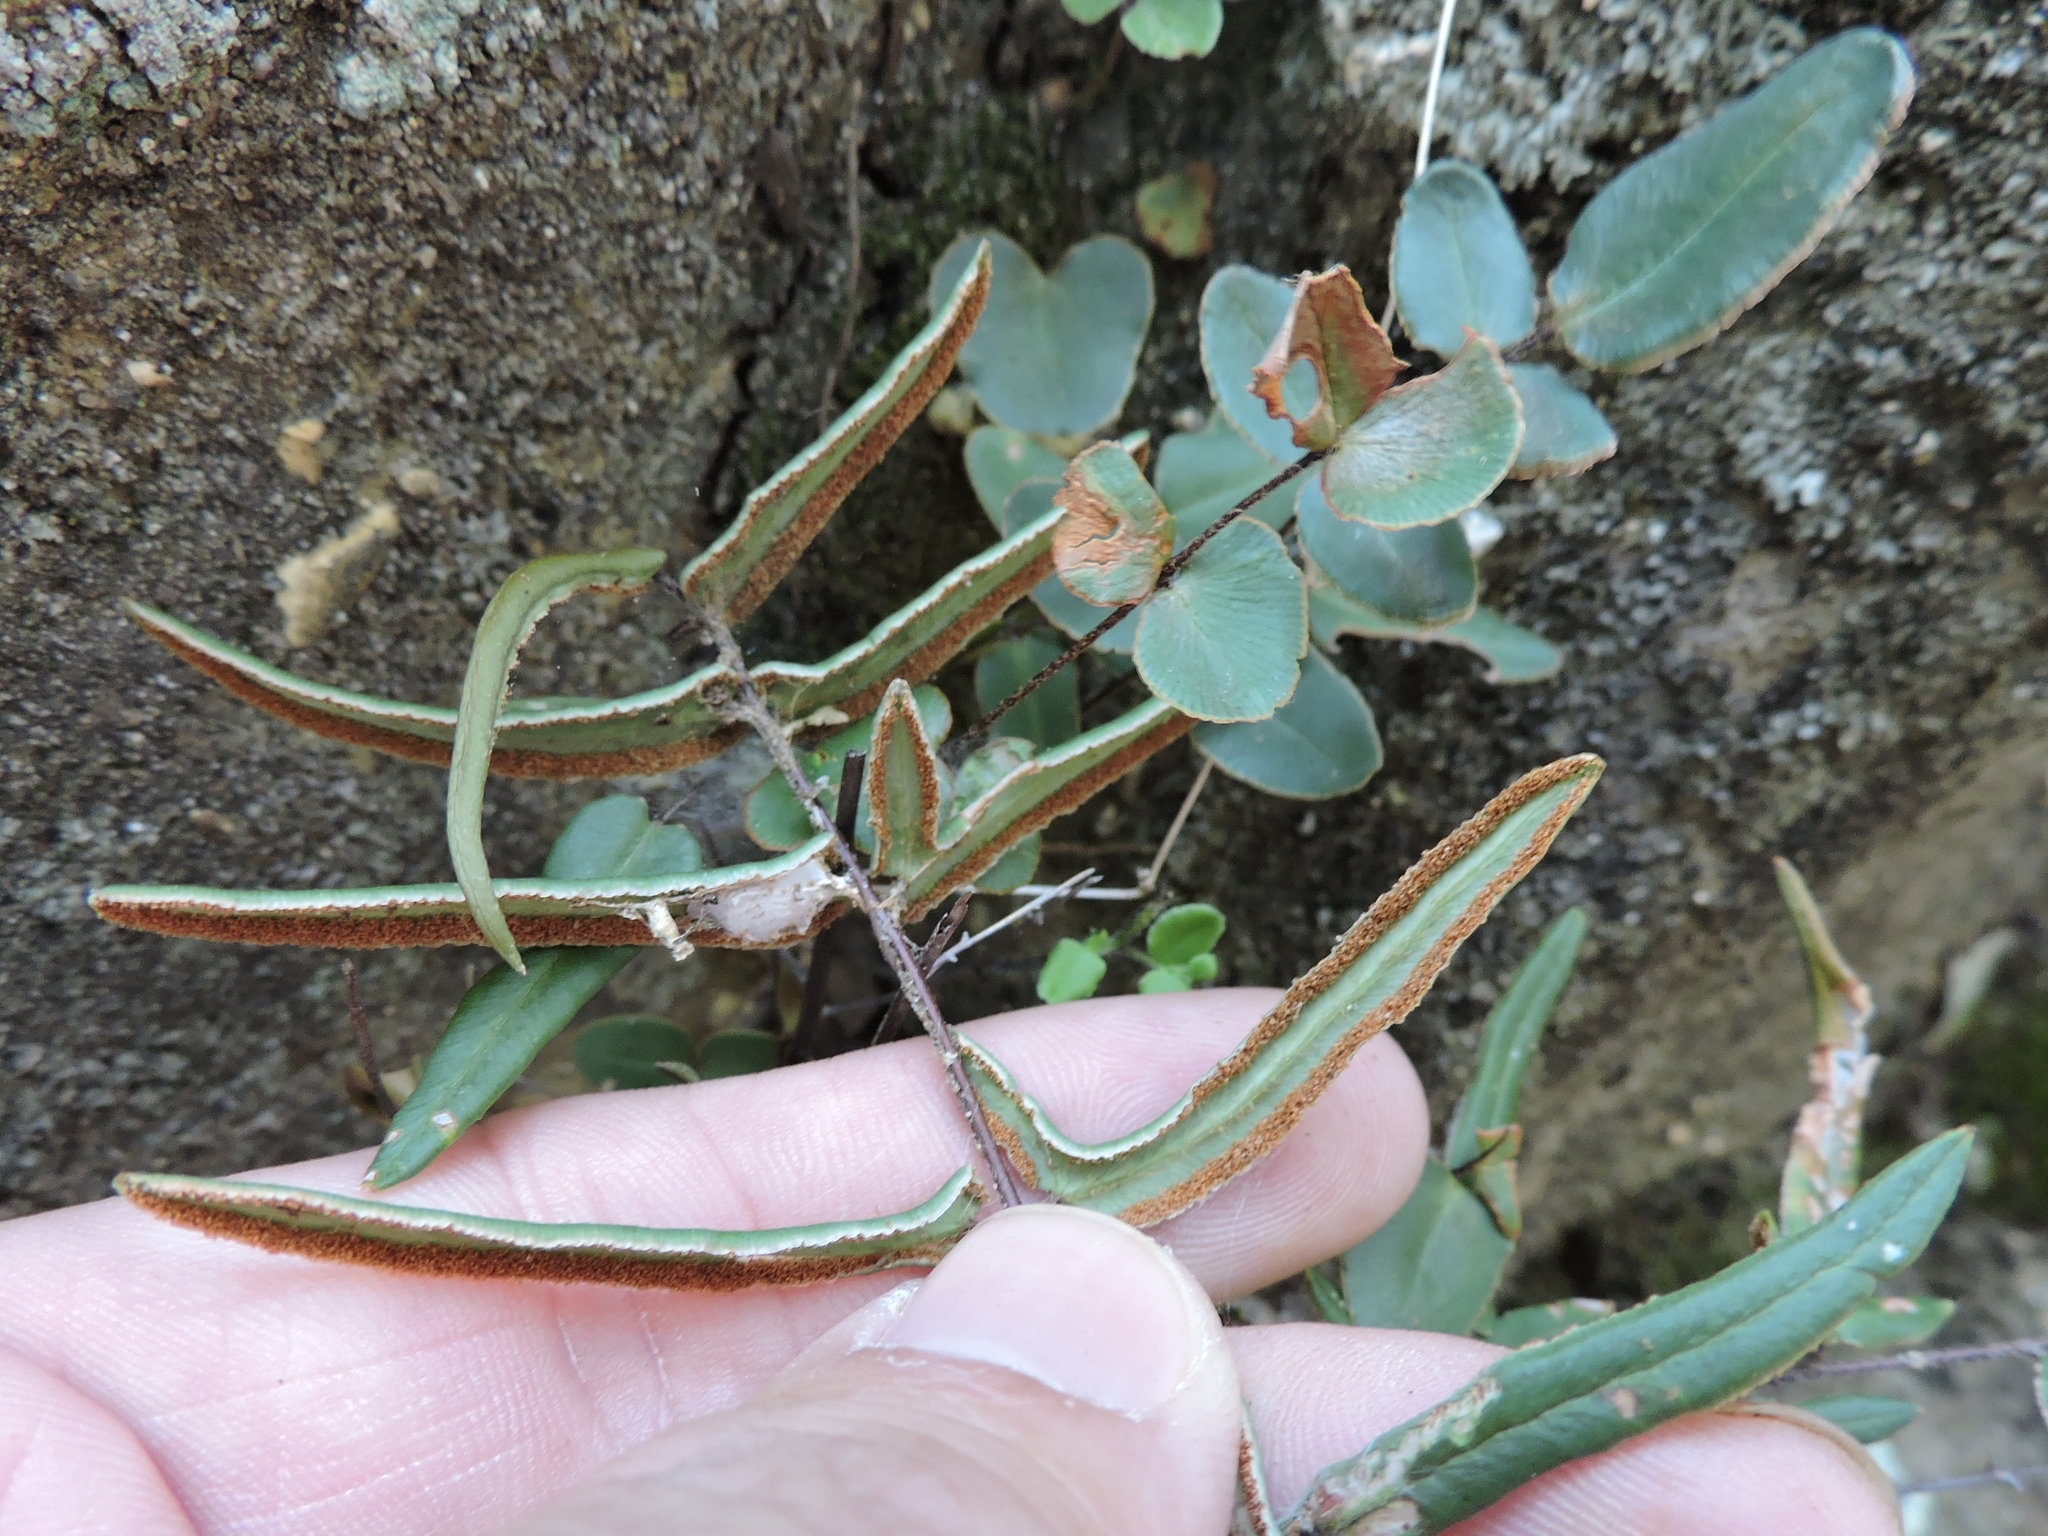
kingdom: Plantae
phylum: Tracheophyta
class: Polypodiopsida
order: Polypodiales
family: Pteridaceae
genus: Pellaea
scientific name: Pellaea atropurpurea
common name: Hairy cliffbrake
